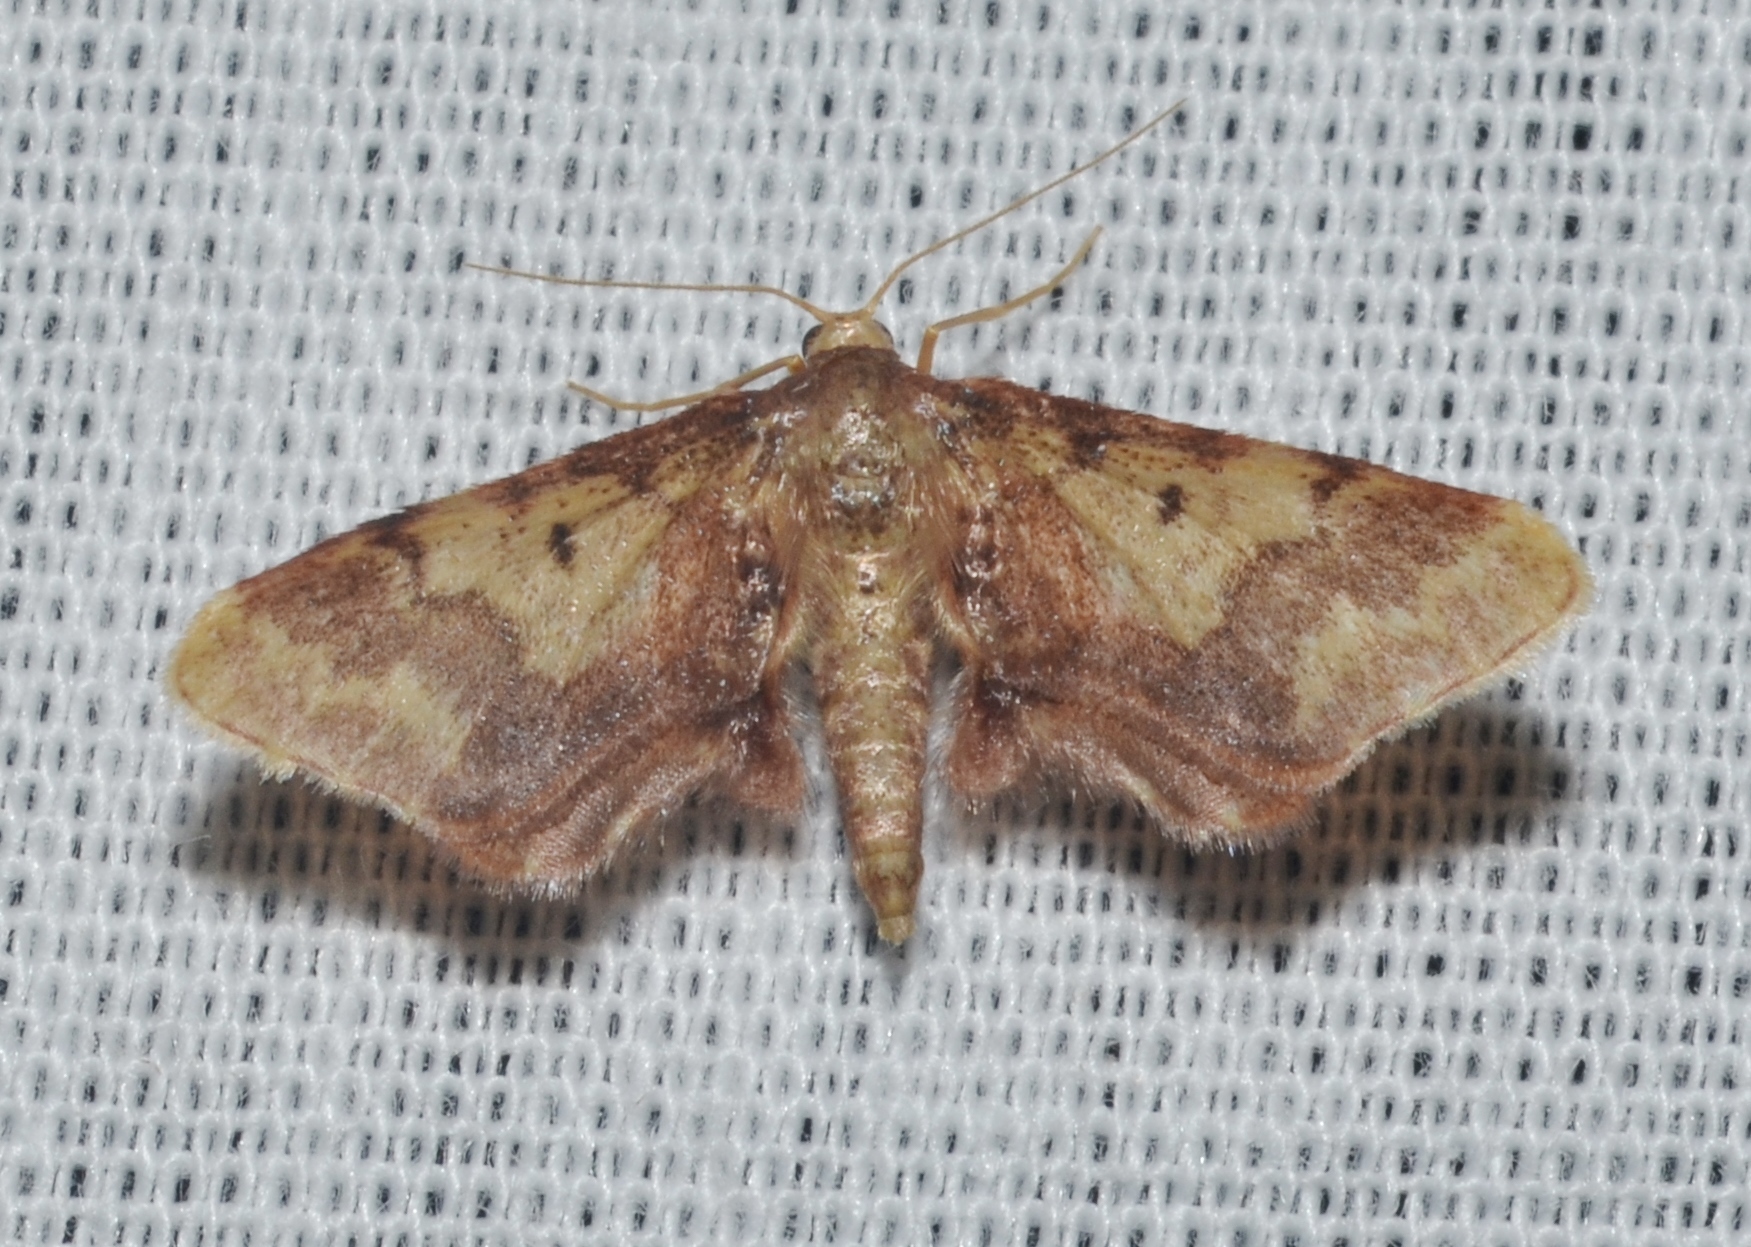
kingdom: Animalia
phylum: Arthropoda
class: Insecta
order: Lepidoptera
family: Geometridae
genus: Idaea
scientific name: Idaea furciferata
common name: Notch-winged wave
